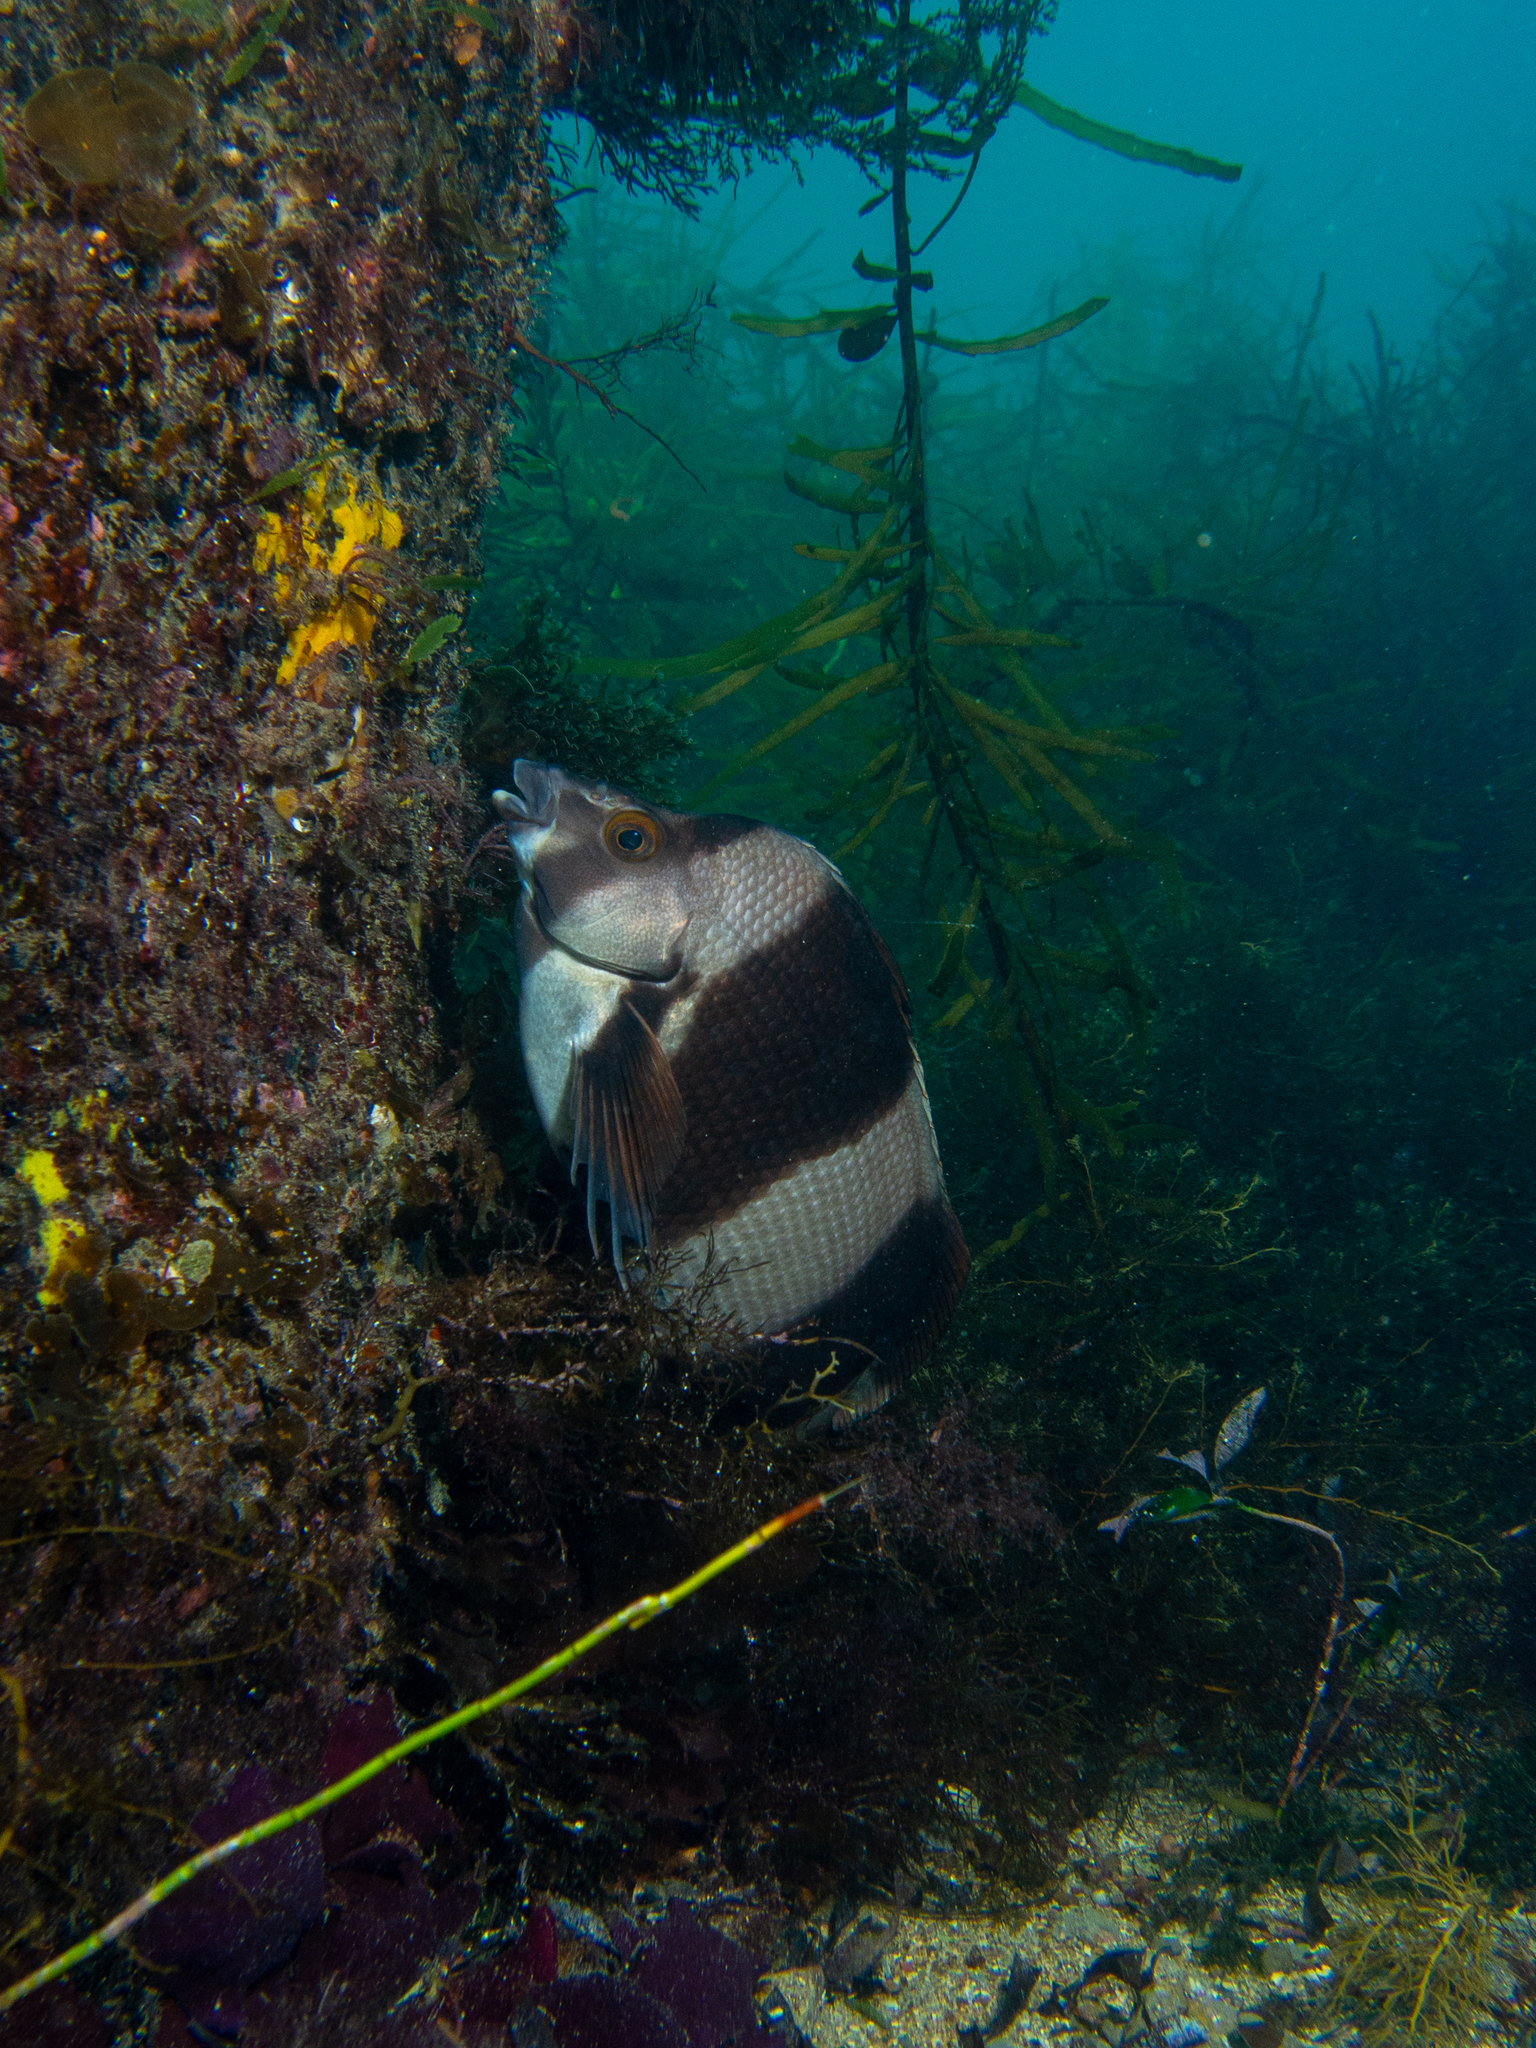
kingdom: Animalia
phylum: Chordata
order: Perciformes
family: Latridae
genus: Pseudogoniistius
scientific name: Pseudogoniistius nigripes
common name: Black-striped morwong
